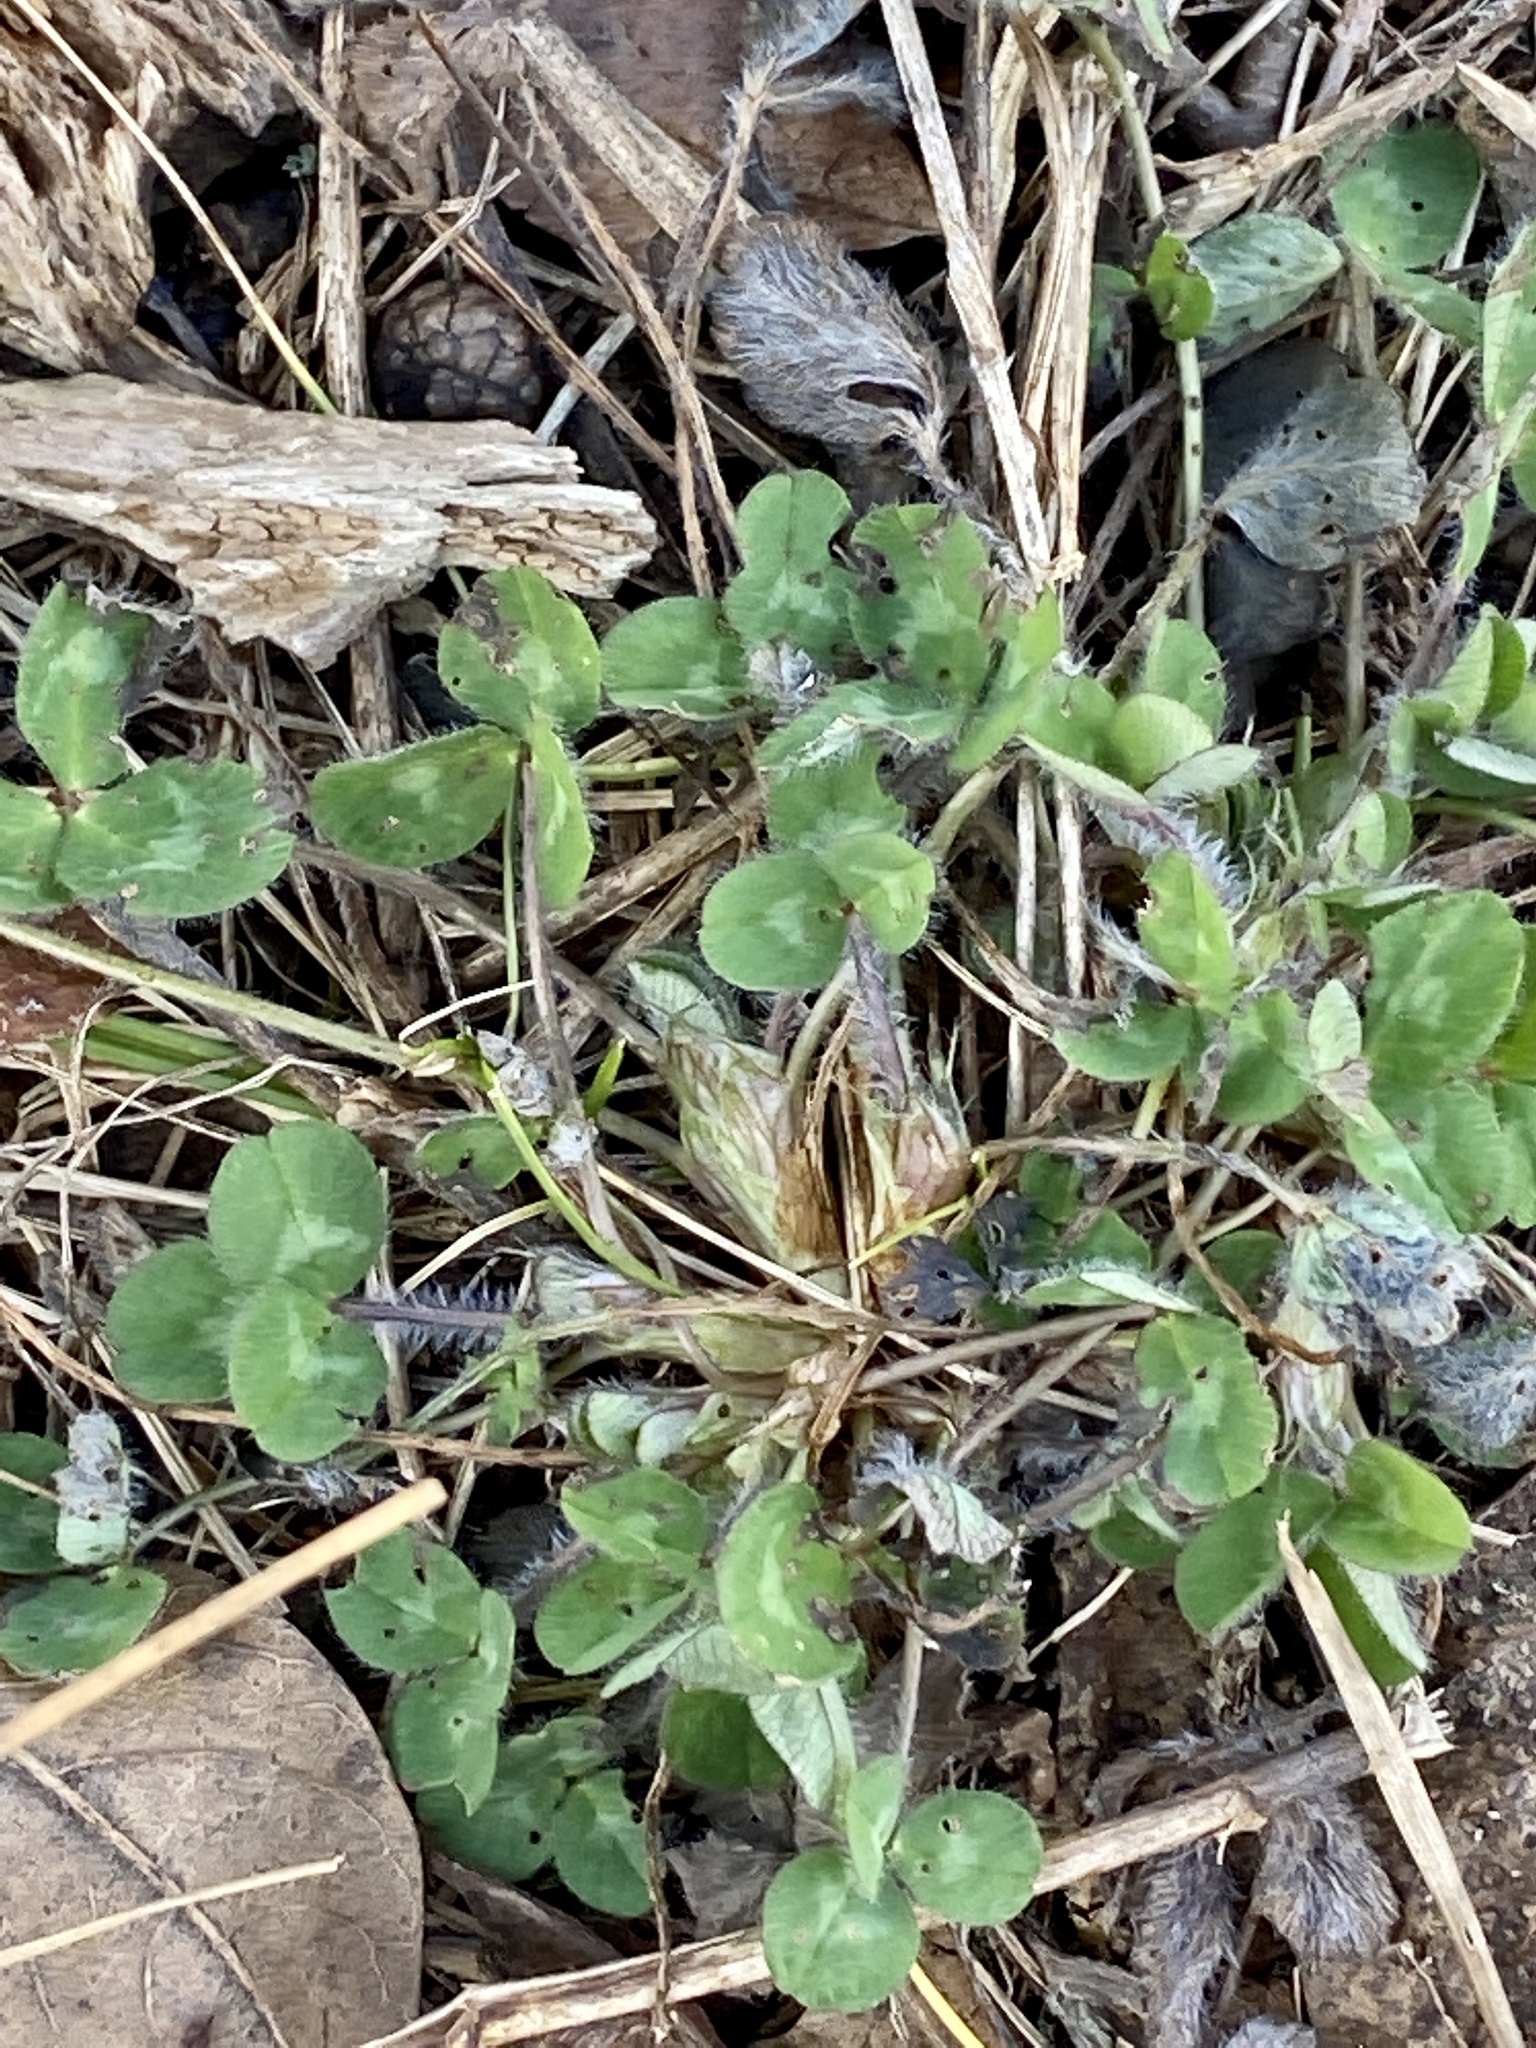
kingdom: Plantae
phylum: Tracheophyta
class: Magnoliopsida
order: Fabales
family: Fabaceae
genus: Trifolium
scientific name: Trifolium pratense
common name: Red clover
